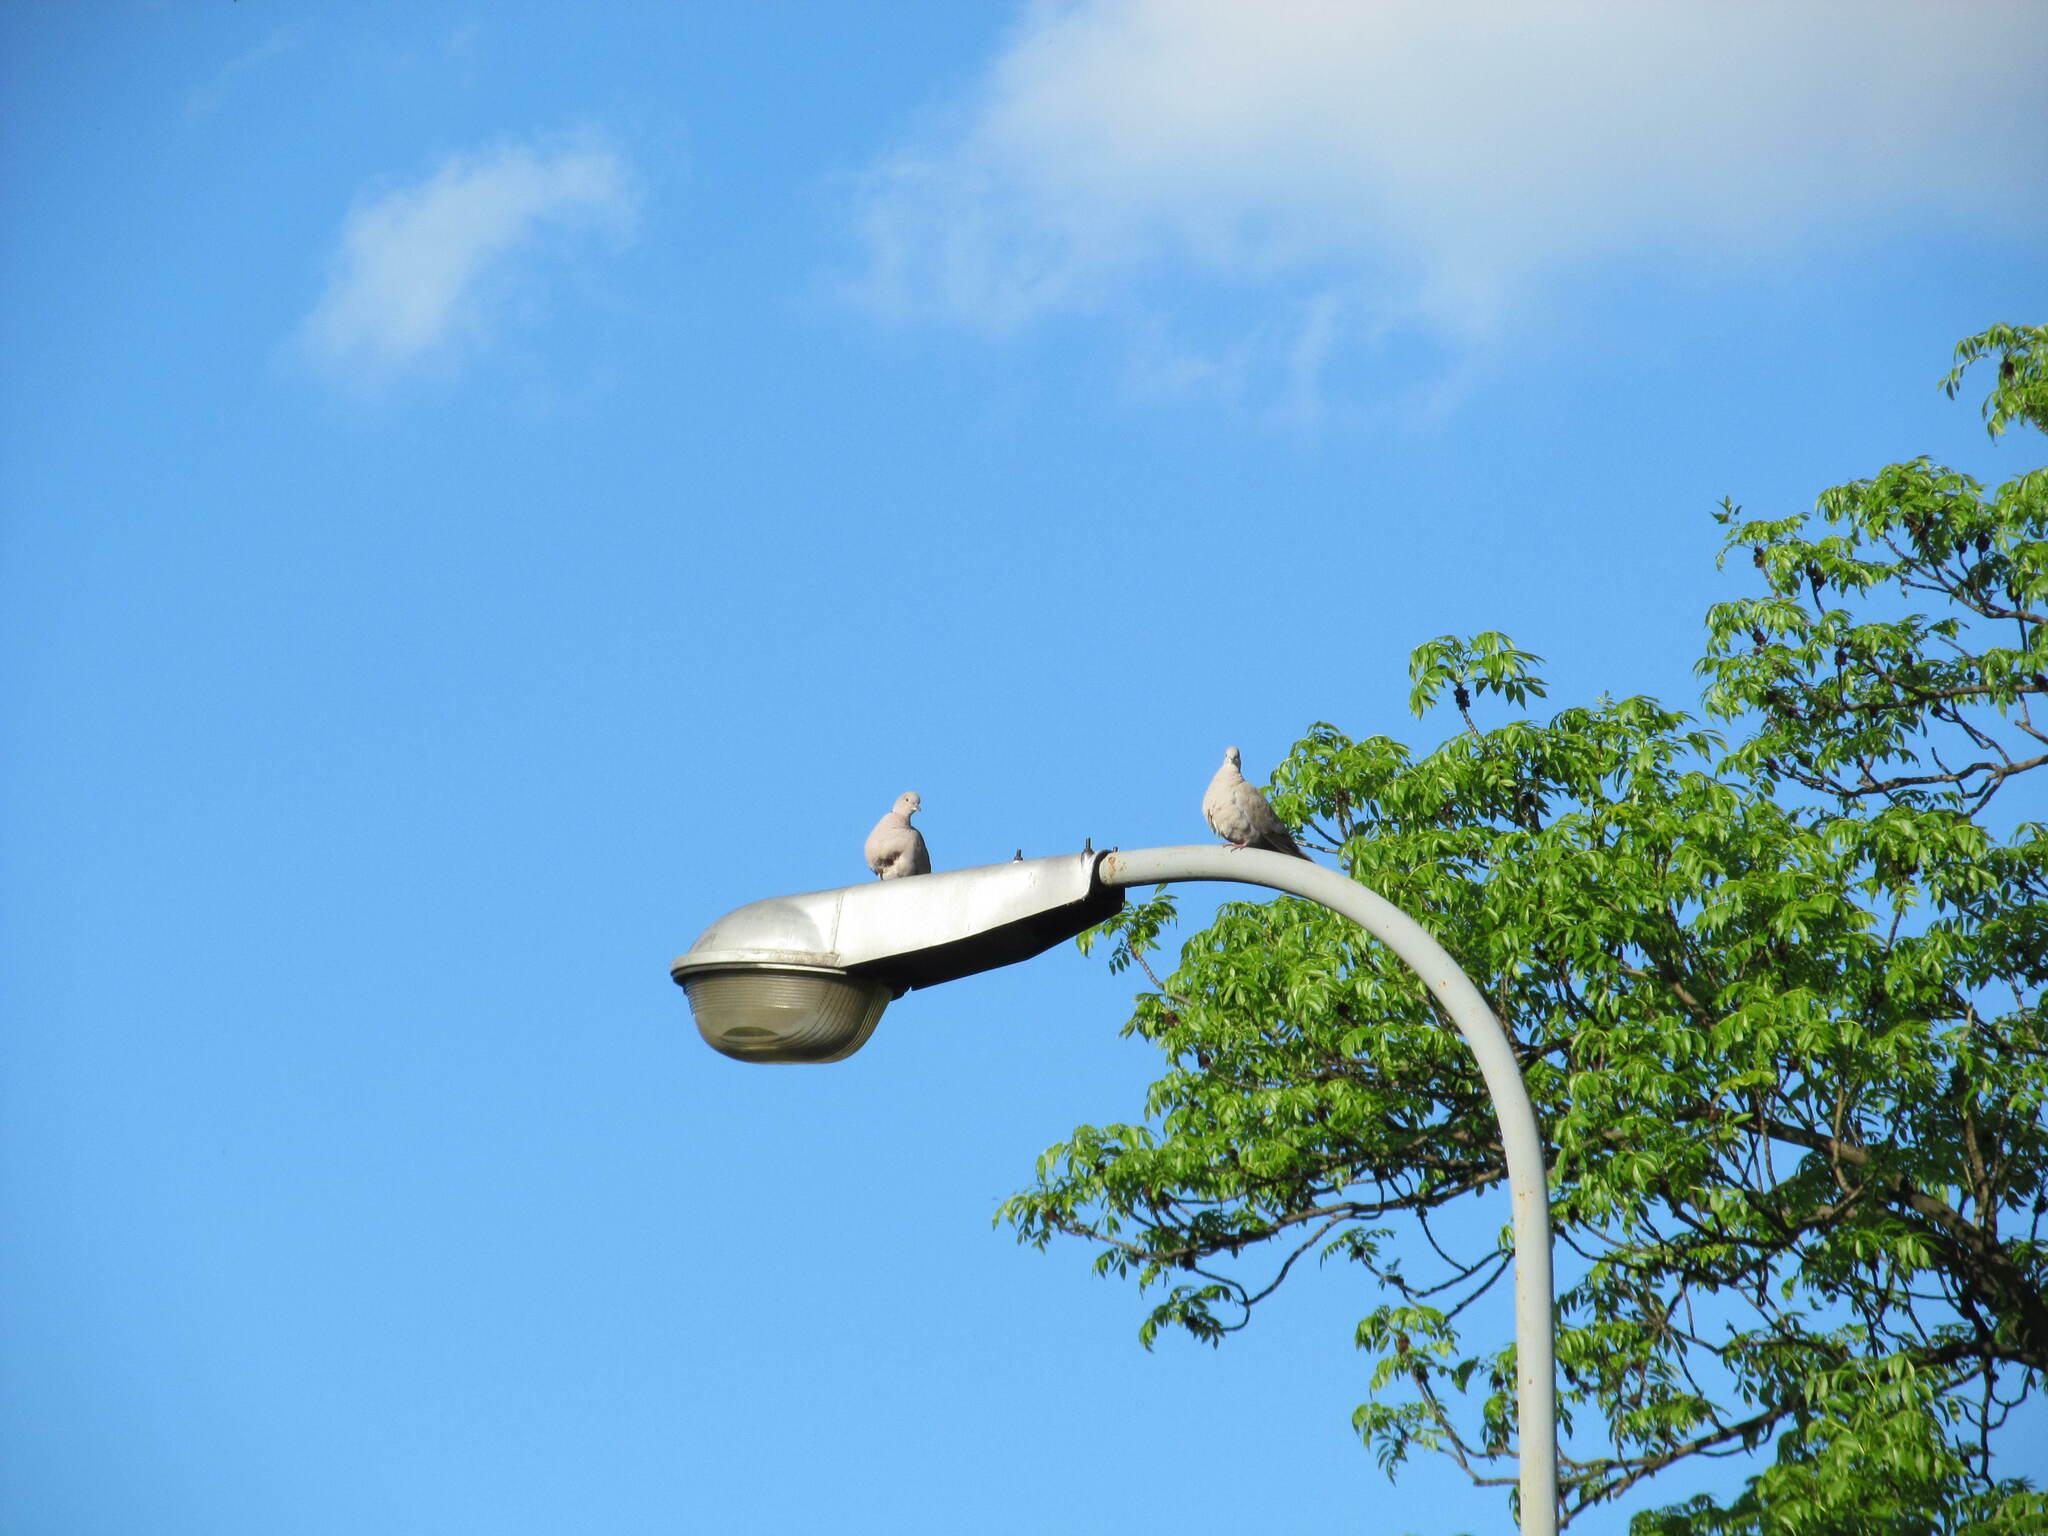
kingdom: Animalia
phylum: Chordata
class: Aves
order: Columbiformes
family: Columbidae
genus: Streptopelia
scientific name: Streptopelia decaocto
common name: Eurasian collared dove
